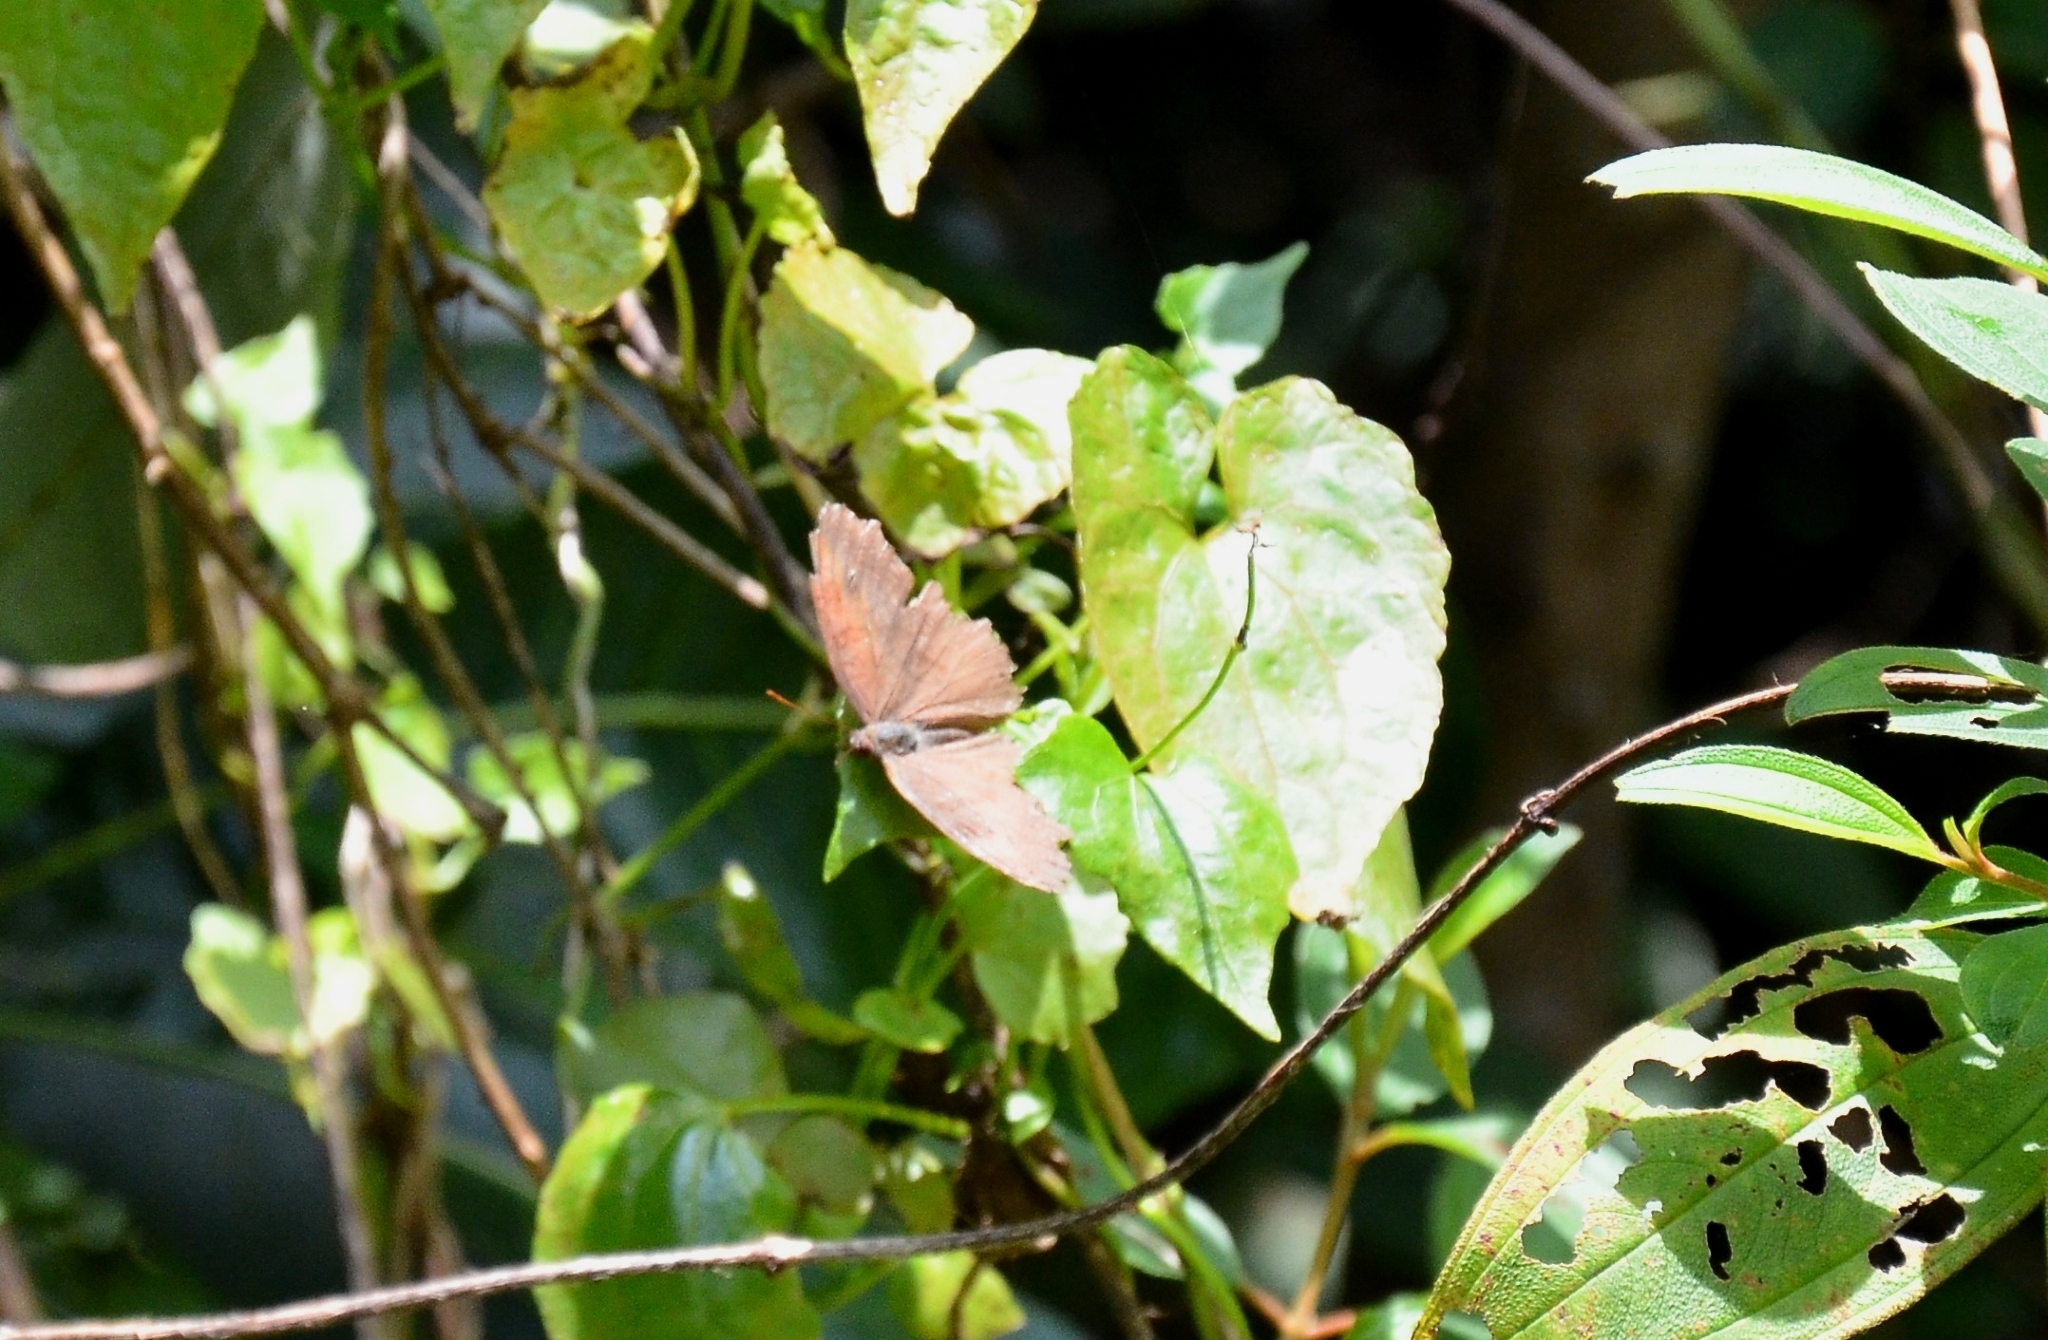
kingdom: Animalia
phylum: Arthropoda
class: Insecta
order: Lepidoptera
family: Nymphalidae
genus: Junonia
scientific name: Junonia iphita
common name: Chocolate pansy
